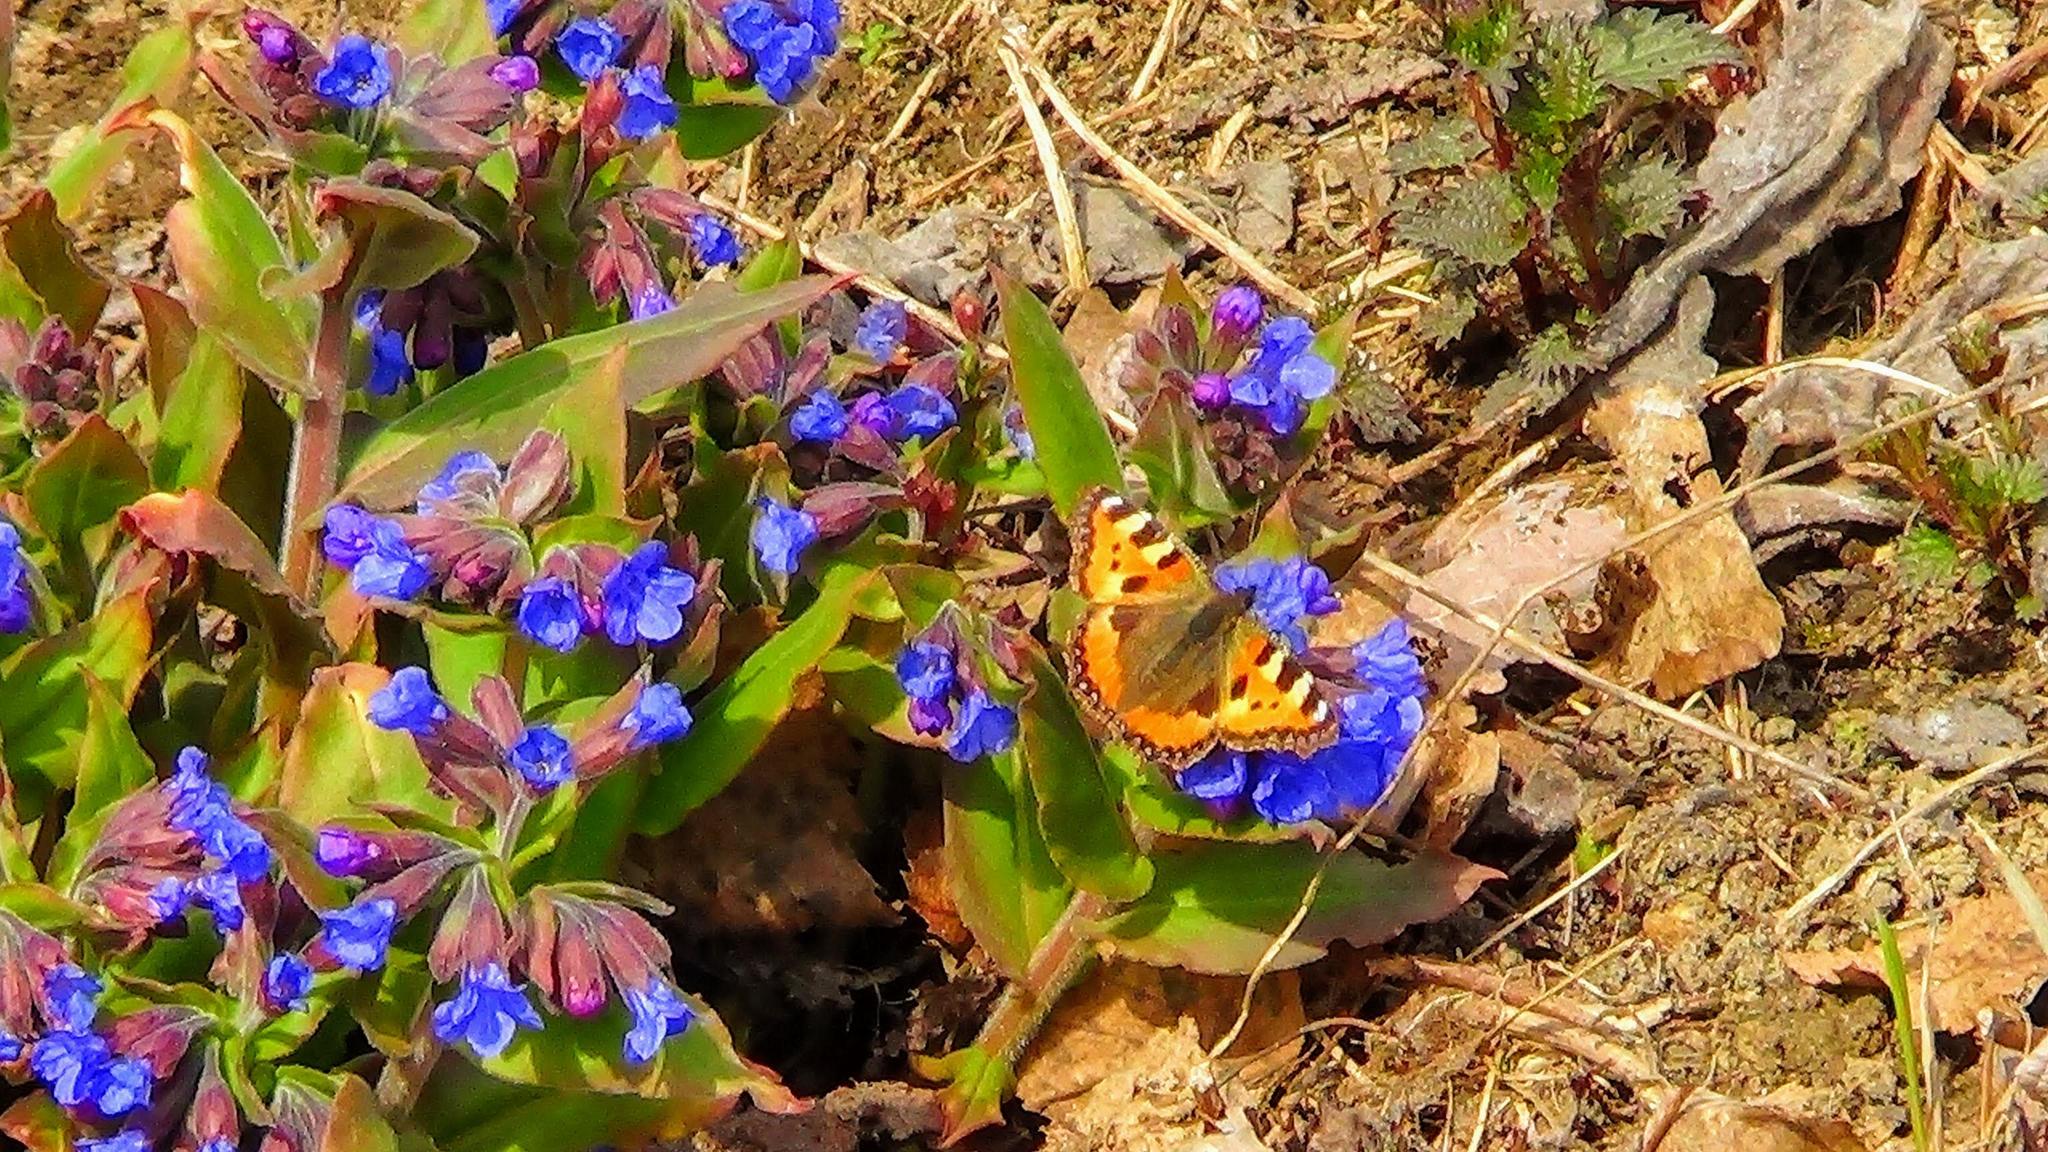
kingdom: Animalia
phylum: Arthropoda
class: Insecta
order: Lepidoptera
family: Nymphalidae
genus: Aglais
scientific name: Aglais urticae
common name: Small tortoiseshell
